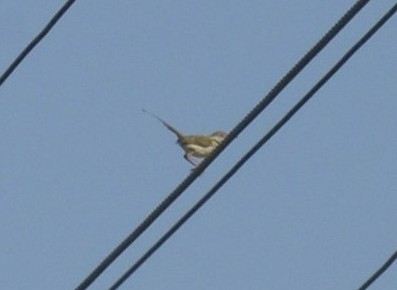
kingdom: Animalia
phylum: Chordata
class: Aves
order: Passeriformes
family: Cisticolidae
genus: Orthotomus
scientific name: Orthotomus sutorius
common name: Common tailorbird
